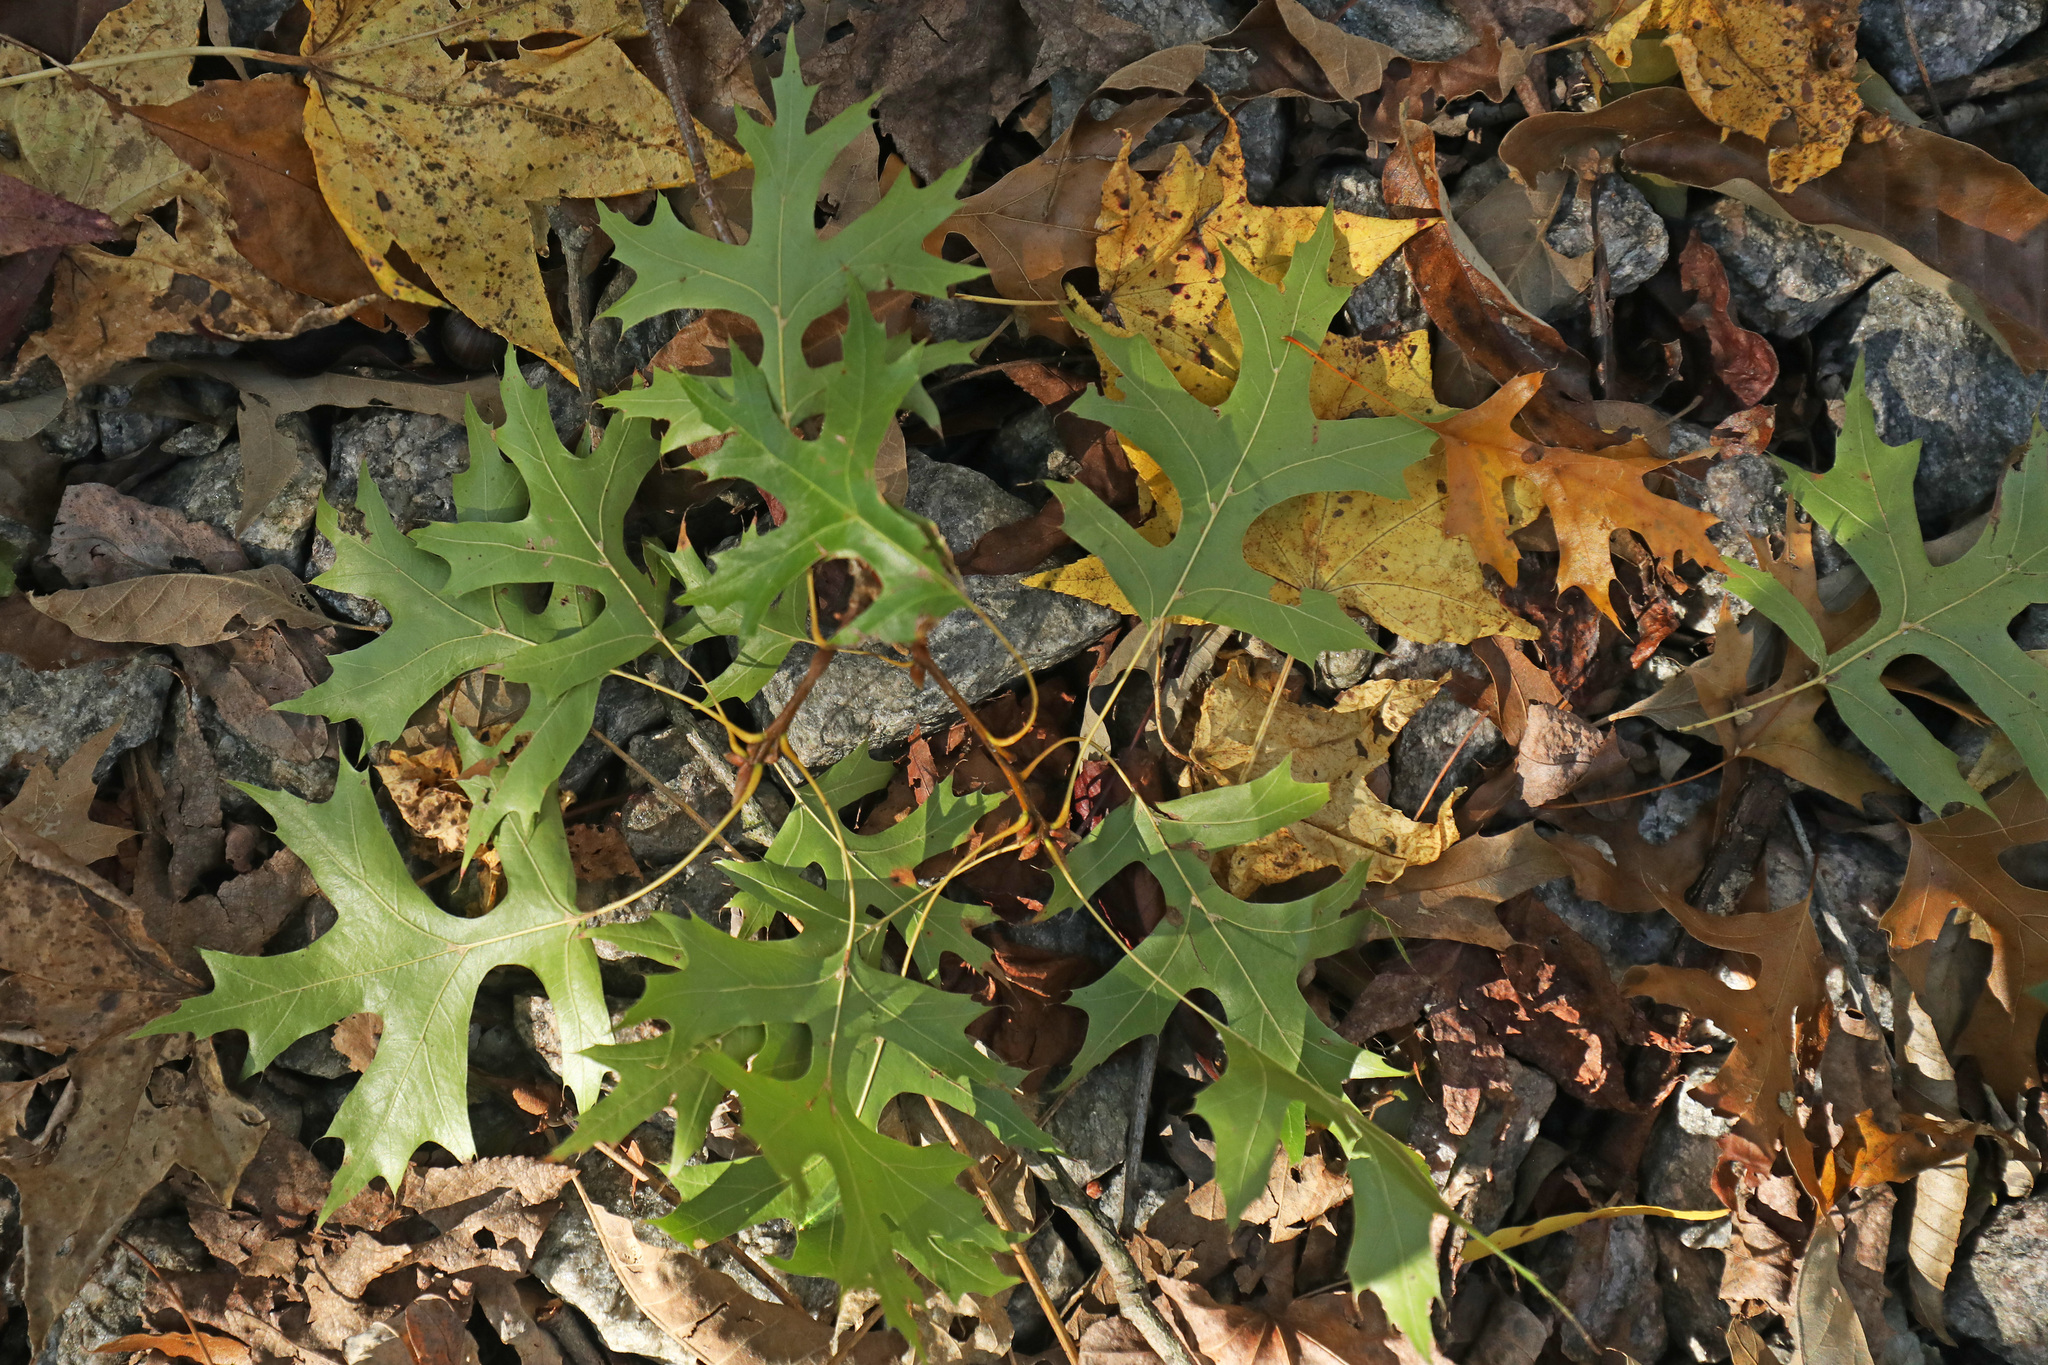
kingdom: Plantae
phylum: Tracheophyta
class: Magnoliopsida
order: Fagales
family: Fagaceae
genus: Quercus
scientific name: Quercus palustris
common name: Pin oak
